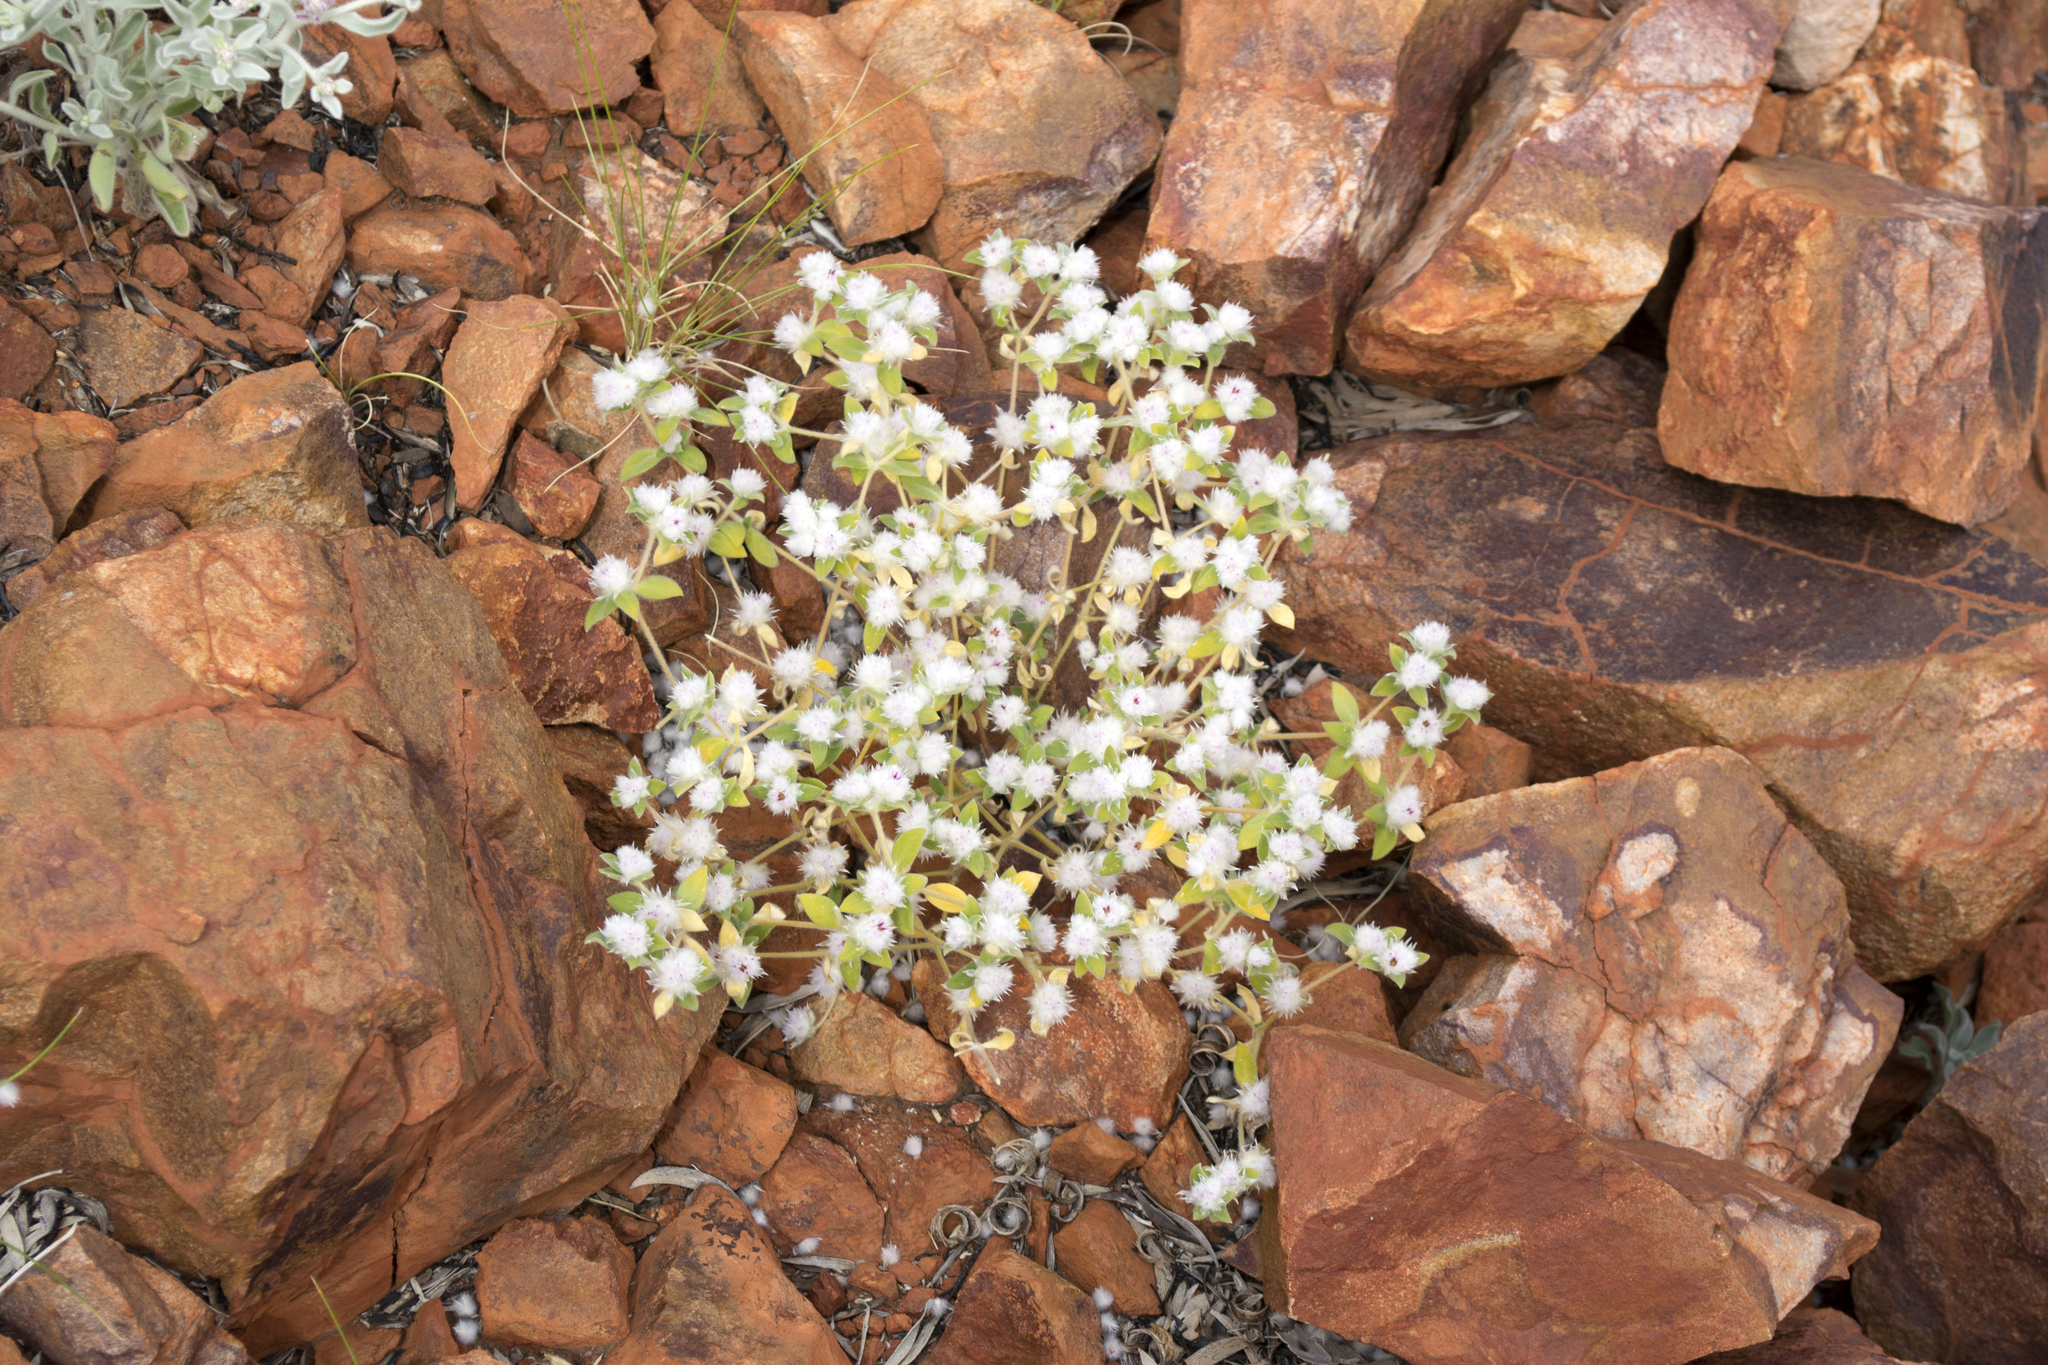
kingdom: Plantae
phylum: Tracheophyta
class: Magnoliopsida
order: Caryophyllales
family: Amaranthaceae
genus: Gomphrena
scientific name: Gomphrena cunninghamii
